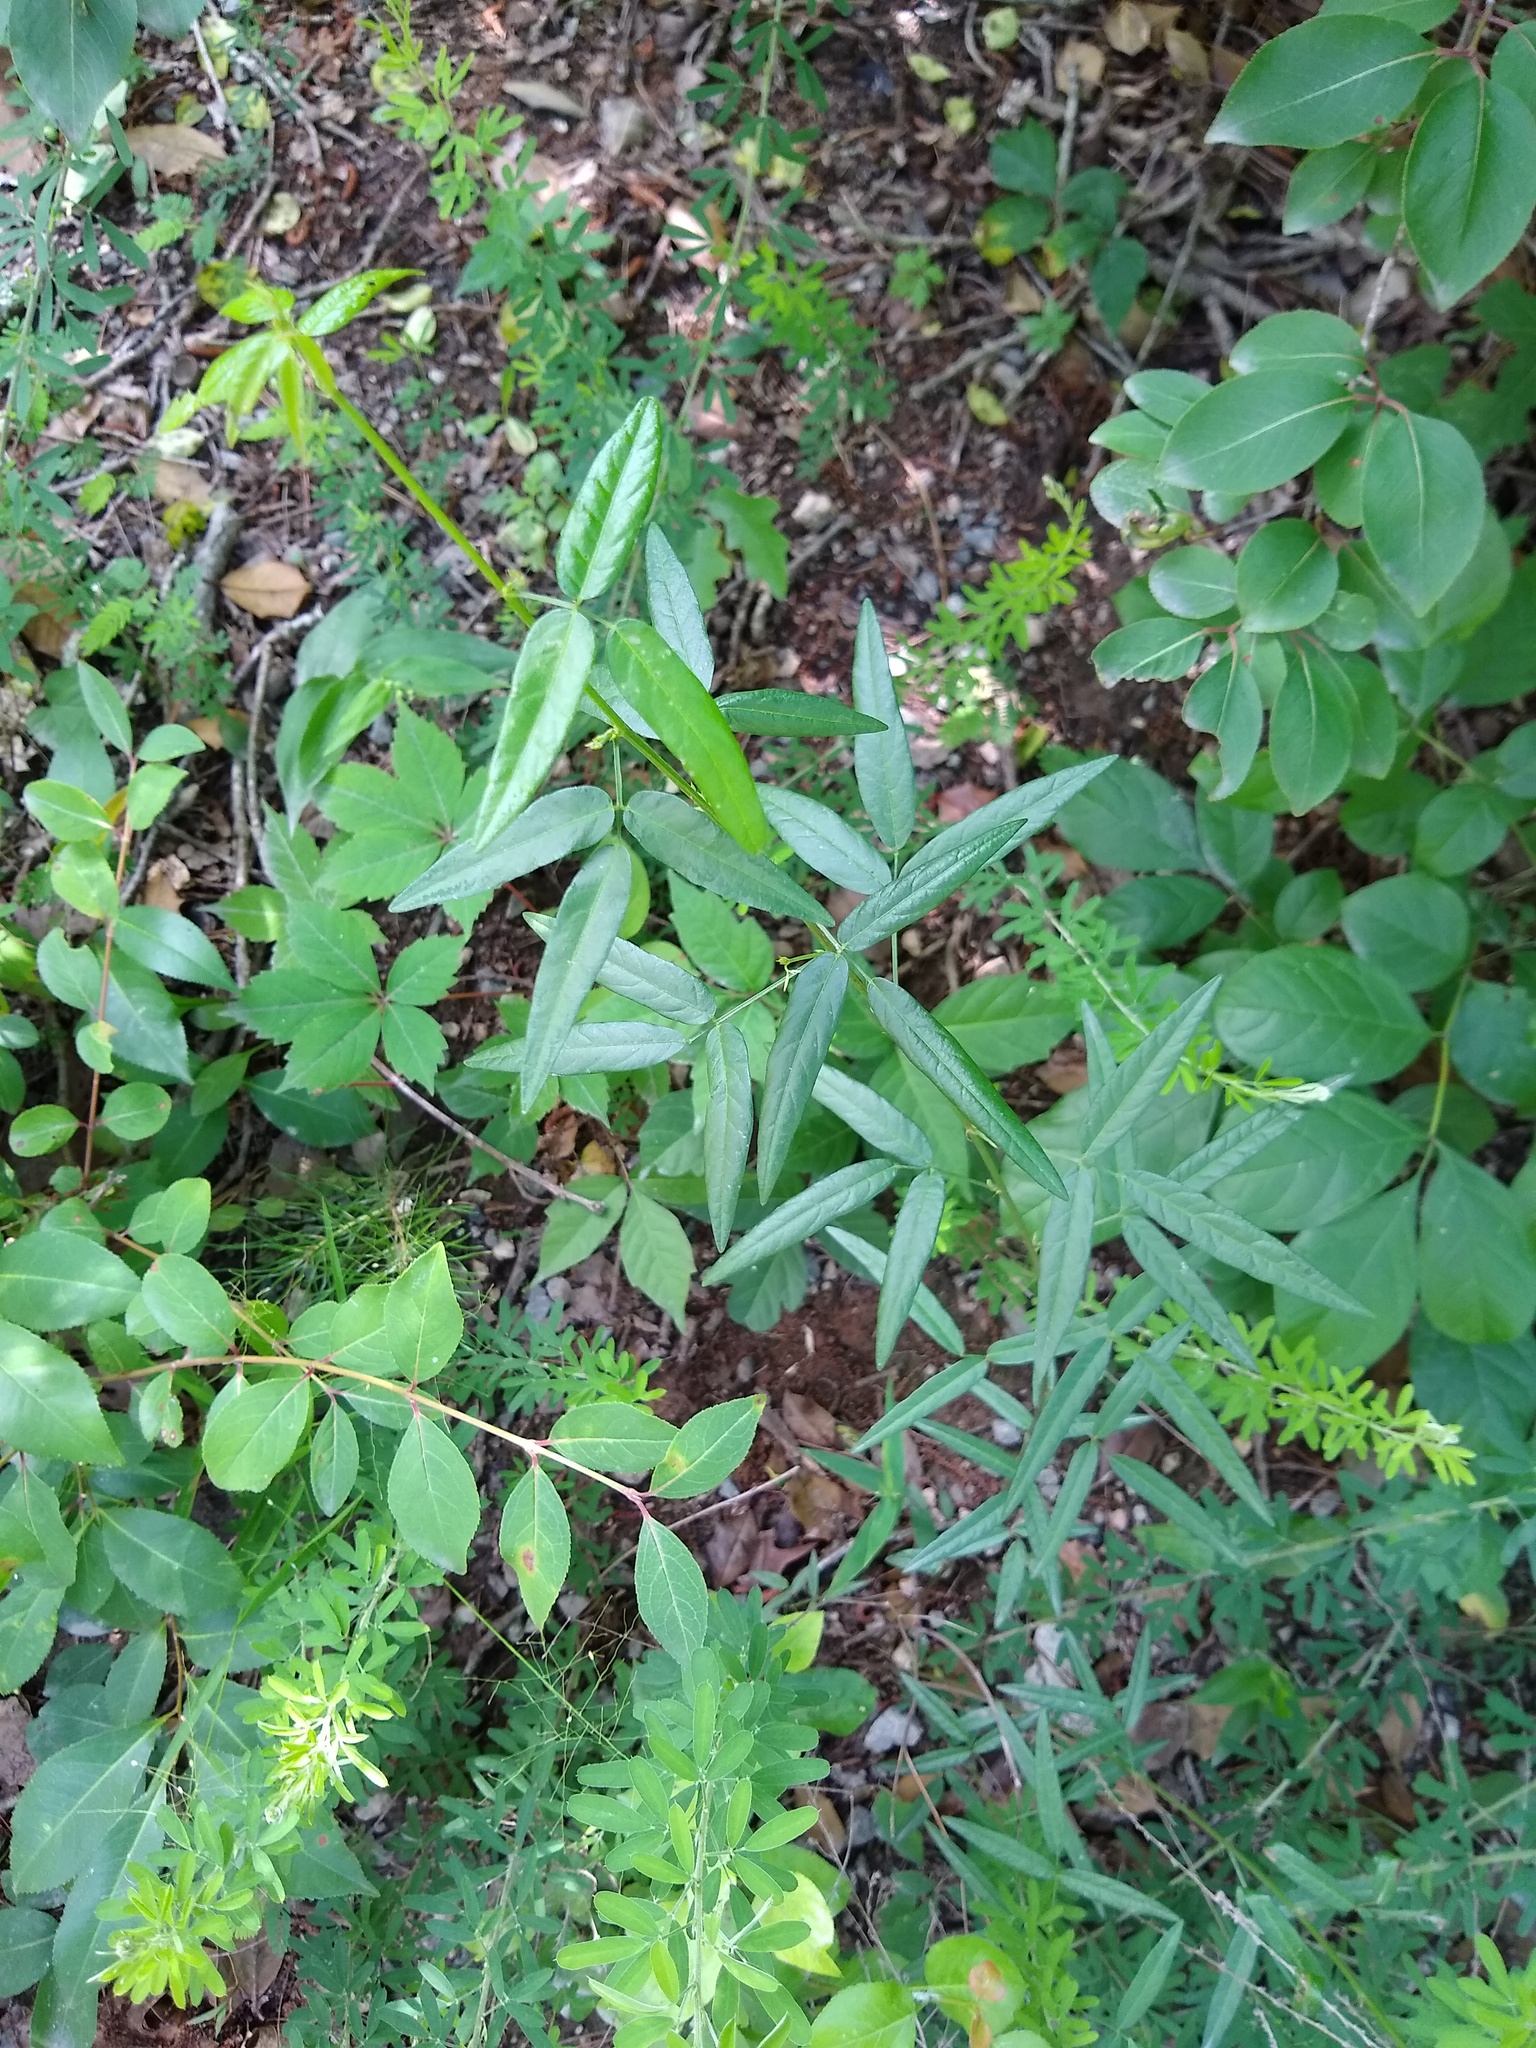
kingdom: Plantae
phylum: Tracheophyta
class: Magnoliopsida
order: Fabales
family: Fabaceae
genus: Desmodium
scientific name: Desmodium paniculatum
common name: Panicled tick-clover
